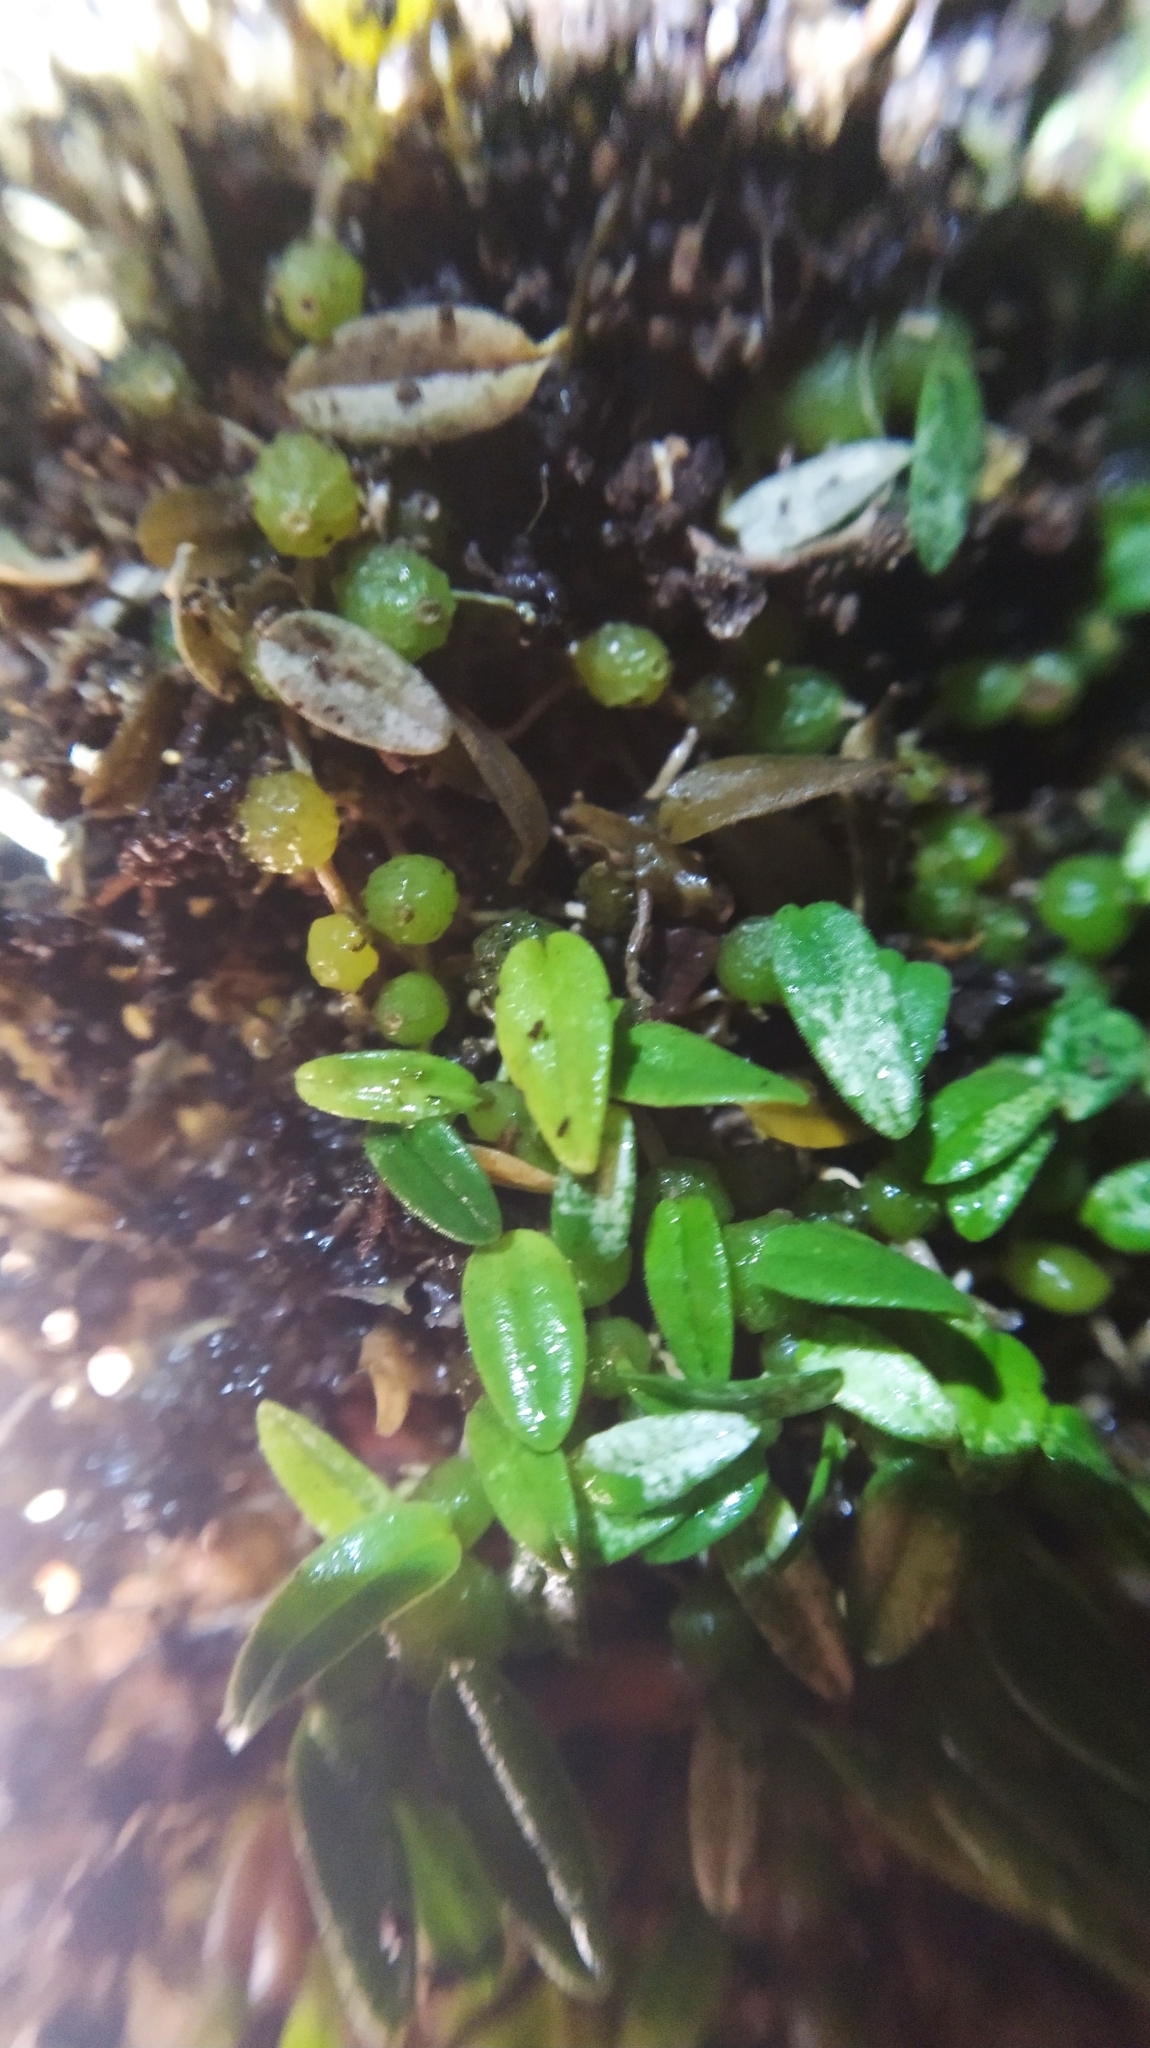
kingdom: Plantae
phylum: Tracheophyta
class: Liliopsida
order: Asparagales
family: Orchidaceae
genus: Bulbophyllum
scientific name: Bulbophyllum pygmaeum
